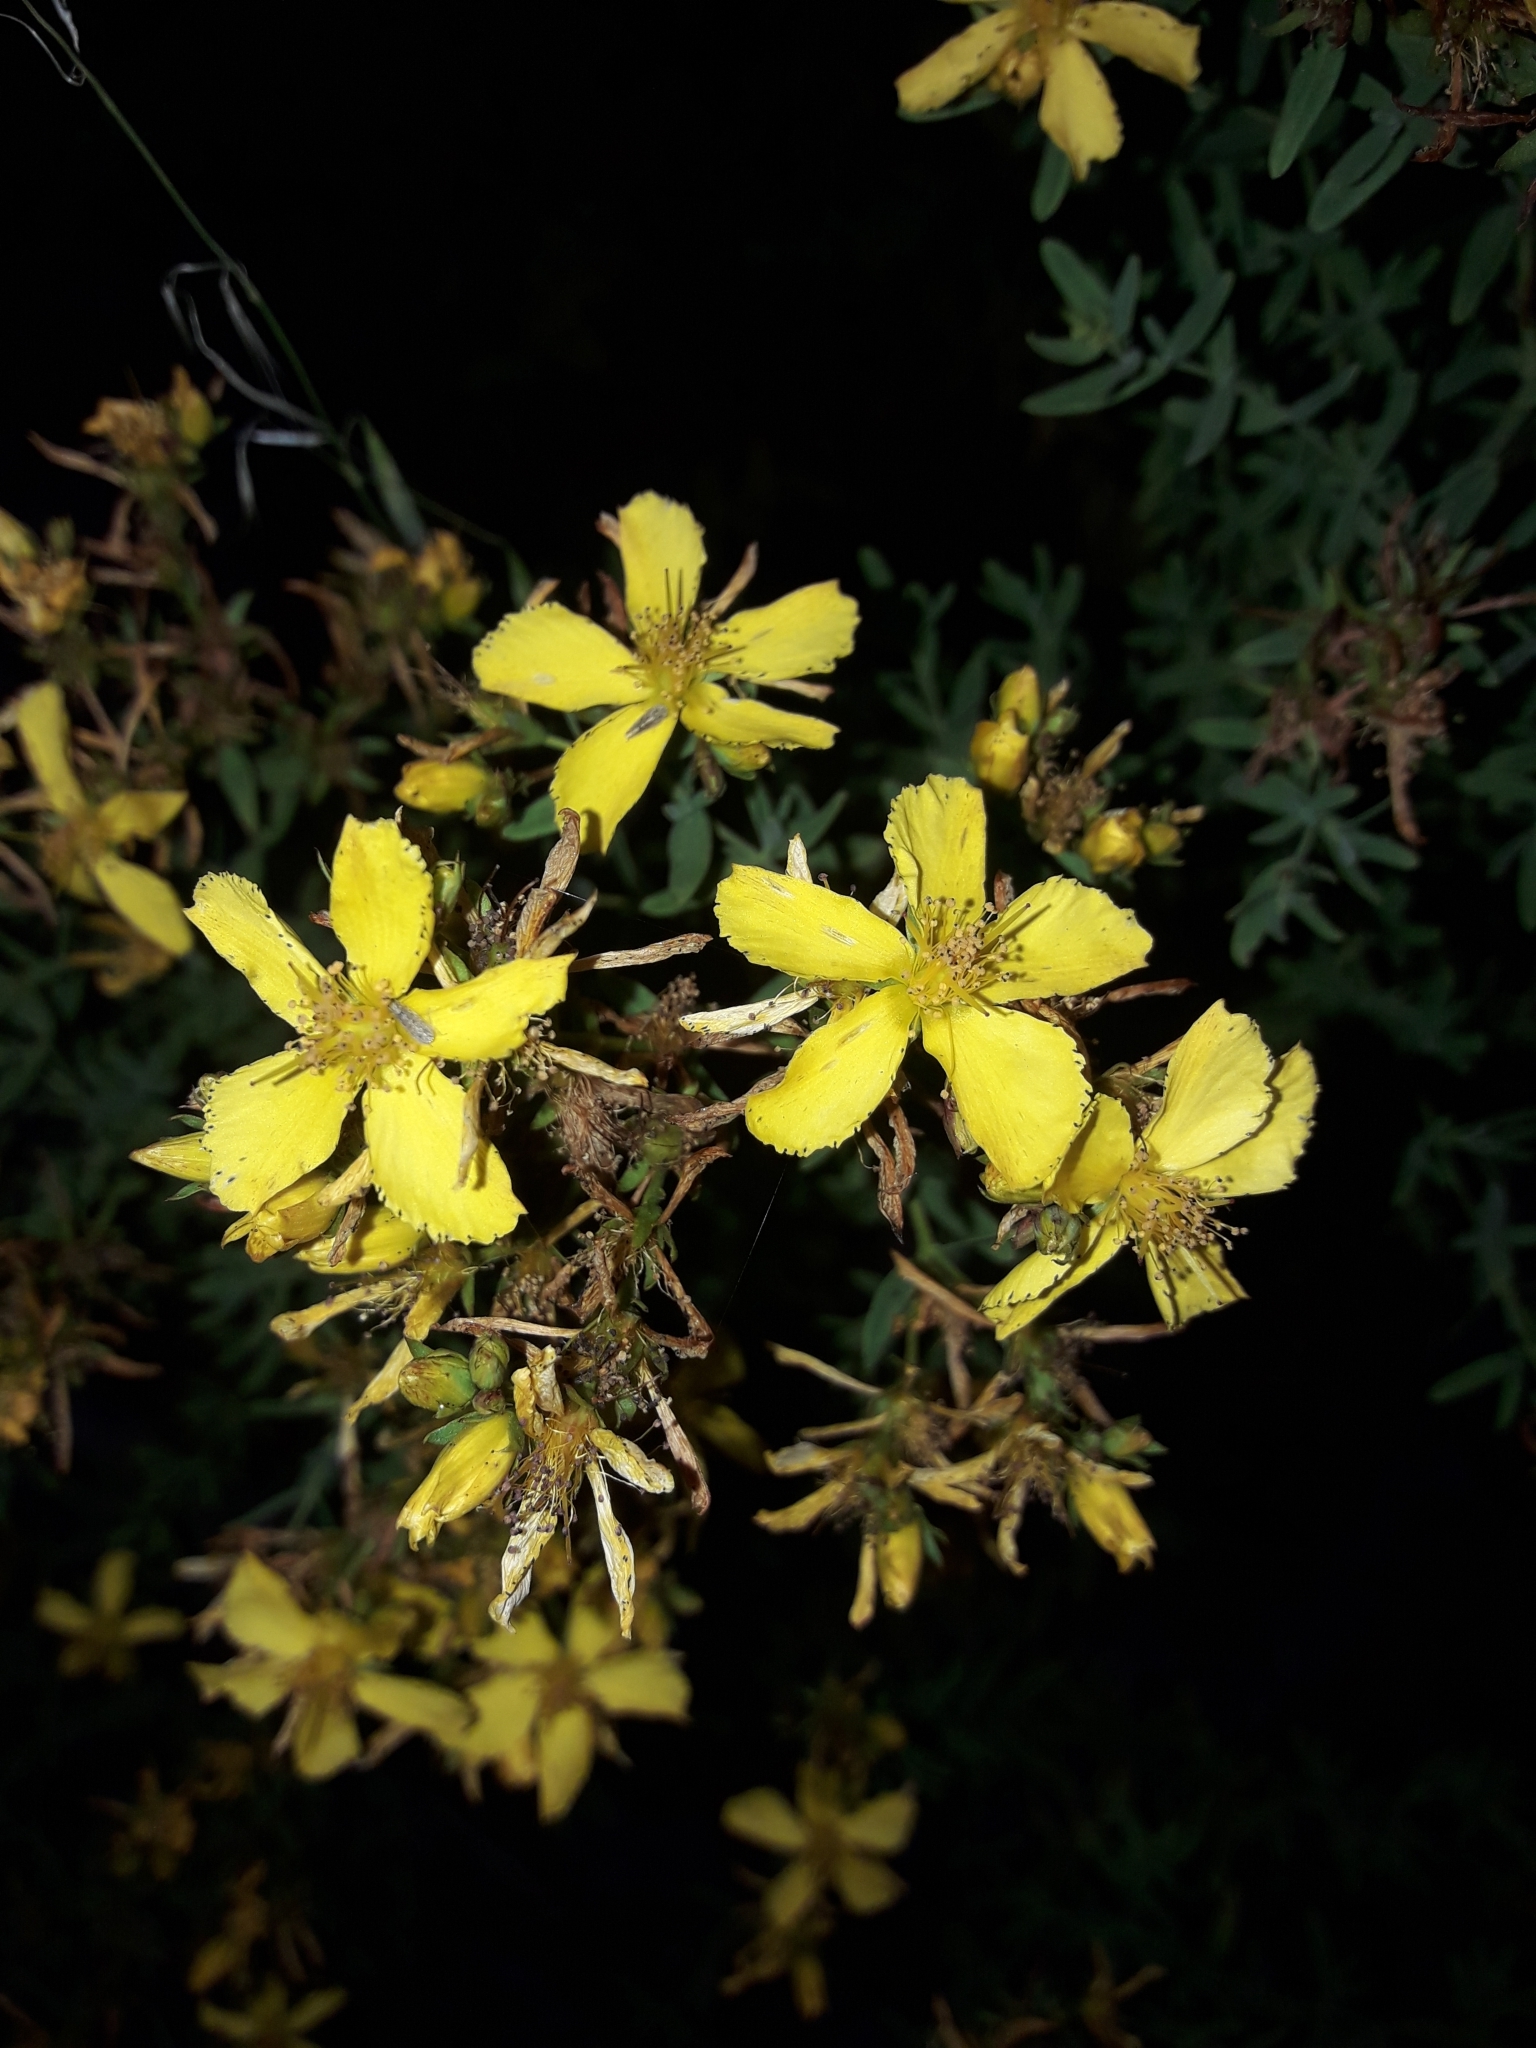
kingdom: Plantae
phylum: Tracheophyta
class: Magnoliopsida
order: Malpighiales
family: Hypericaceae
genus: Hypericum
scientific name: Hypericum perforatum
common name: Common st. johnswort
